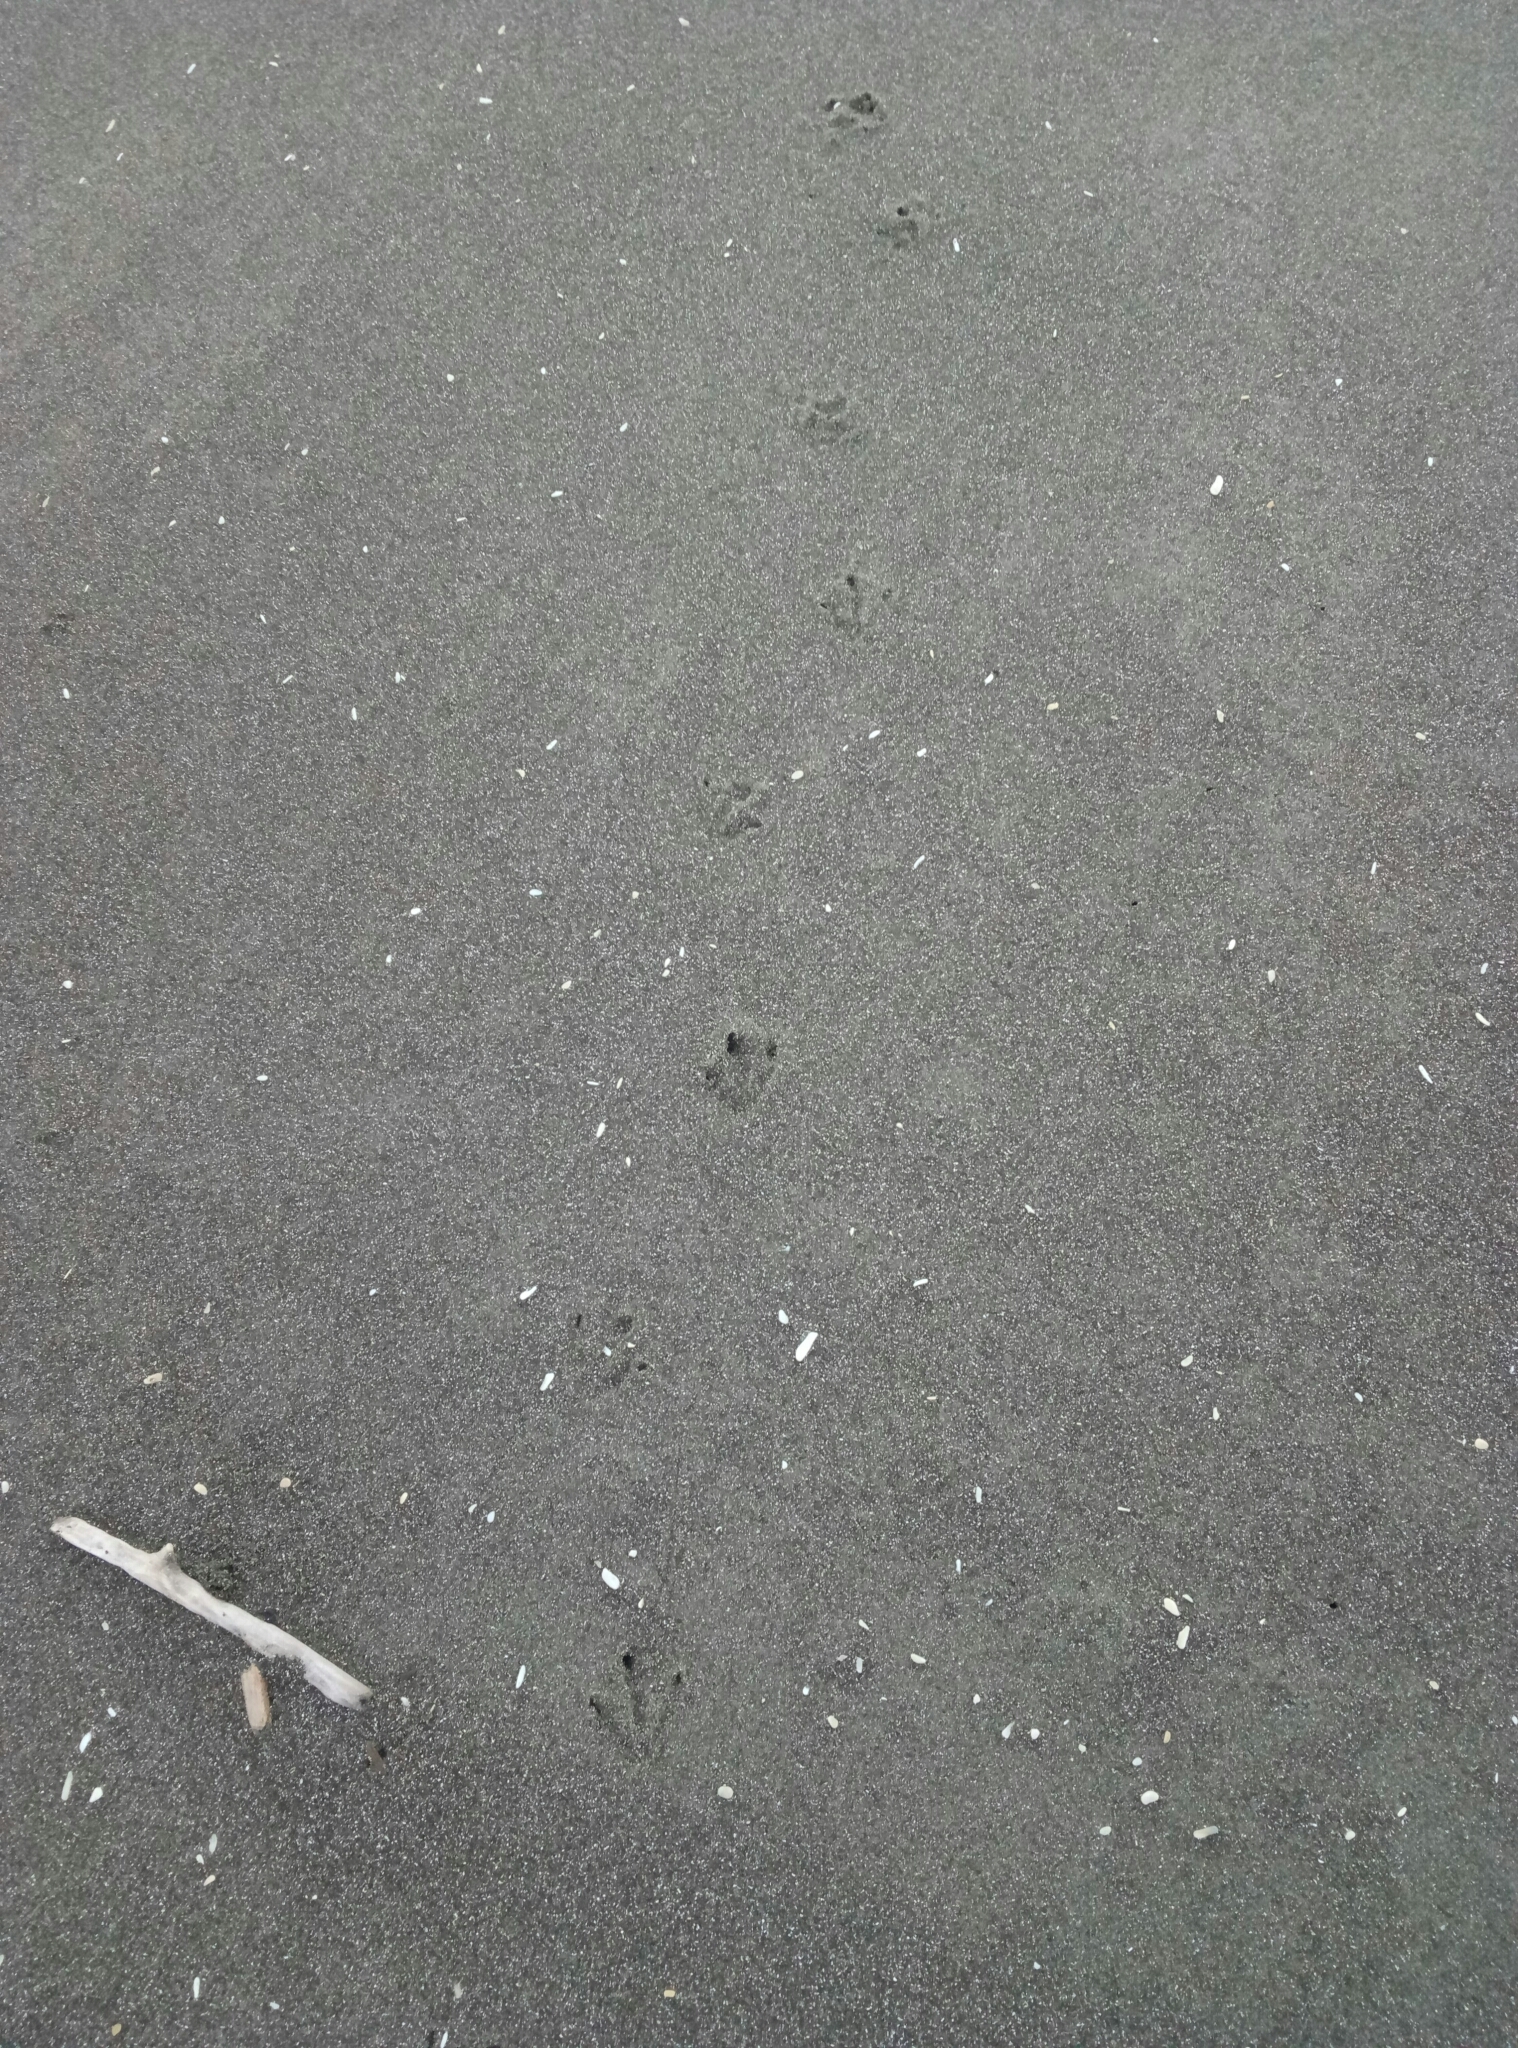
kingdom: Animalia
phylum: Chordata
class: Aves
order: Sphenisciformes
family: Spheniscidae
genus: Eudyptula
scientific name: Eudyptula minor
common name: Little penguin
